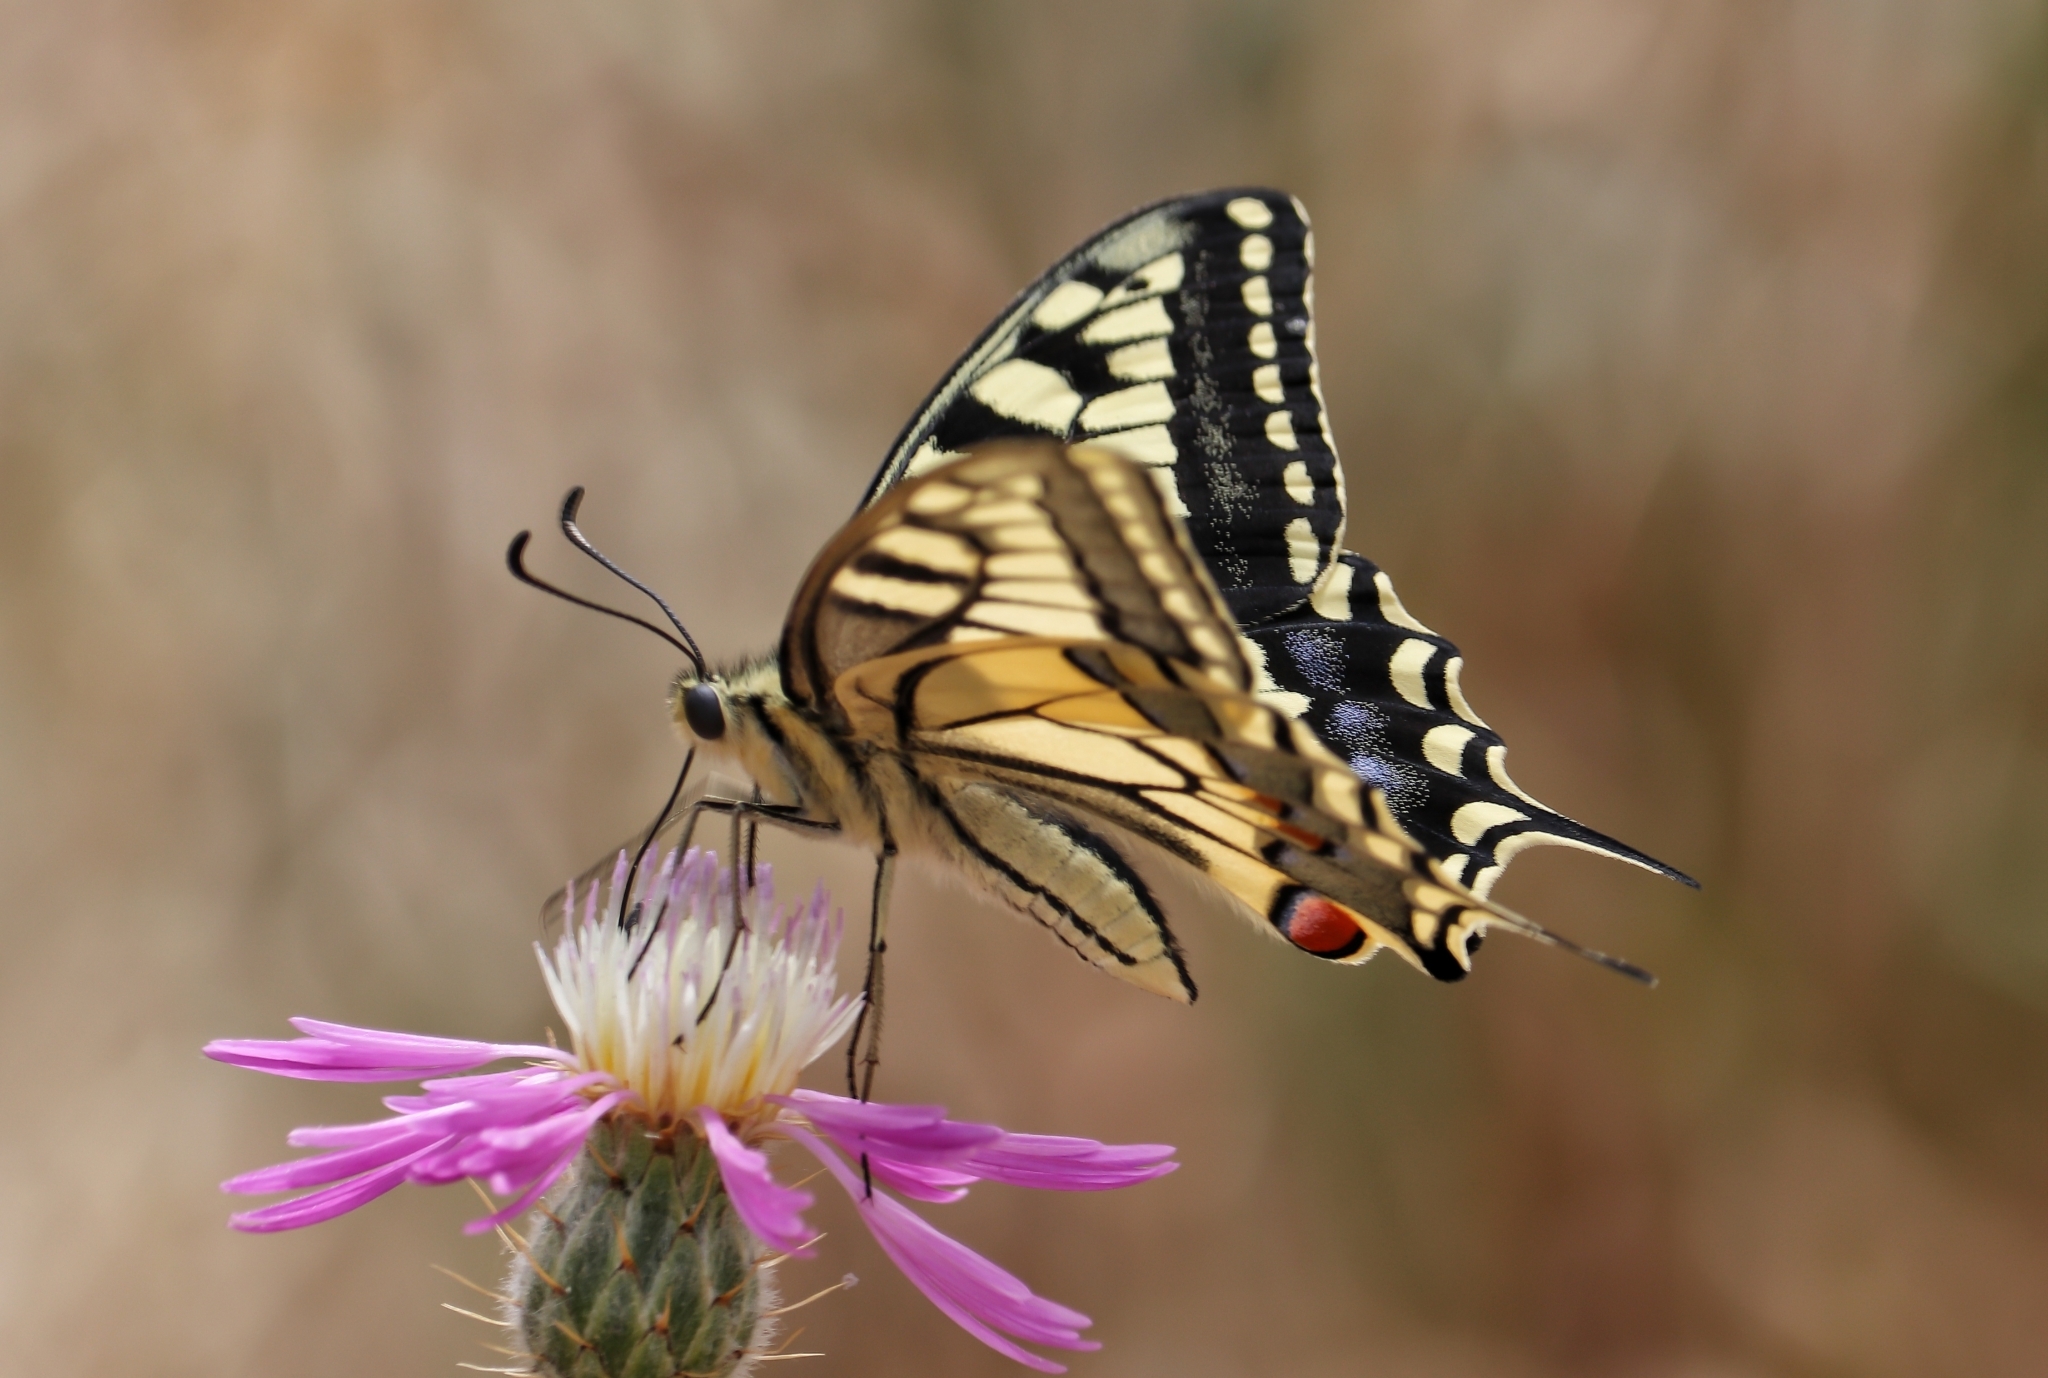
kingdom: Animalia
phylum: Arthropoda
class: Insecta
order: Lepidoptera
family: Papilionidae
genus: Papilio
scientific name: Papilio machaon
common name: Swallowtail
